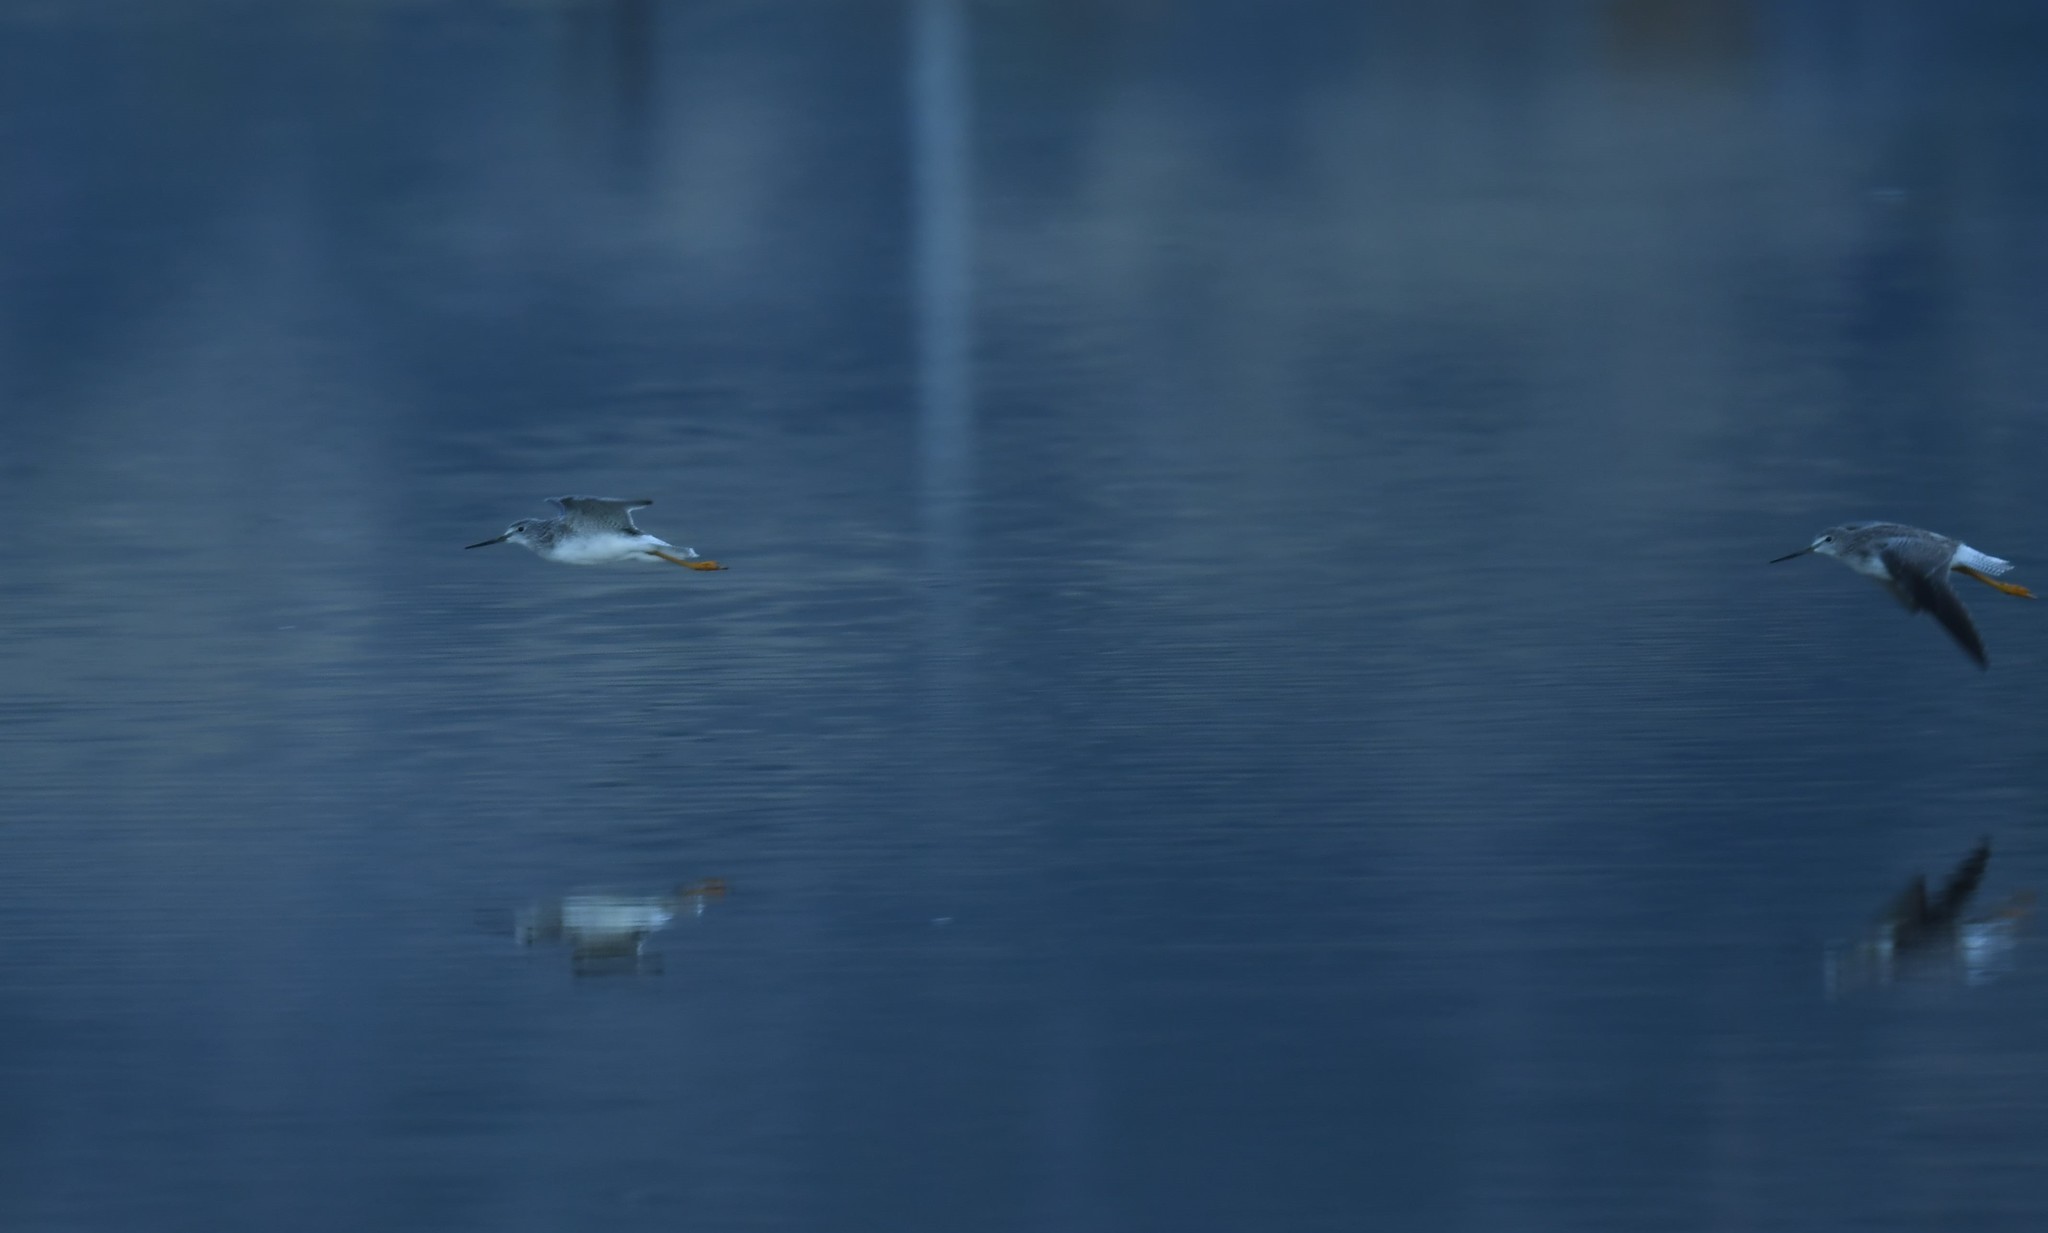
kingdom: Animalia
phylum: Chordata
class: Aves
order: Charadriiformes
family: Scolopacidae
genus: Tringa
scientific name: Tringa melanoleuca
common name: Greater yellowlegs
